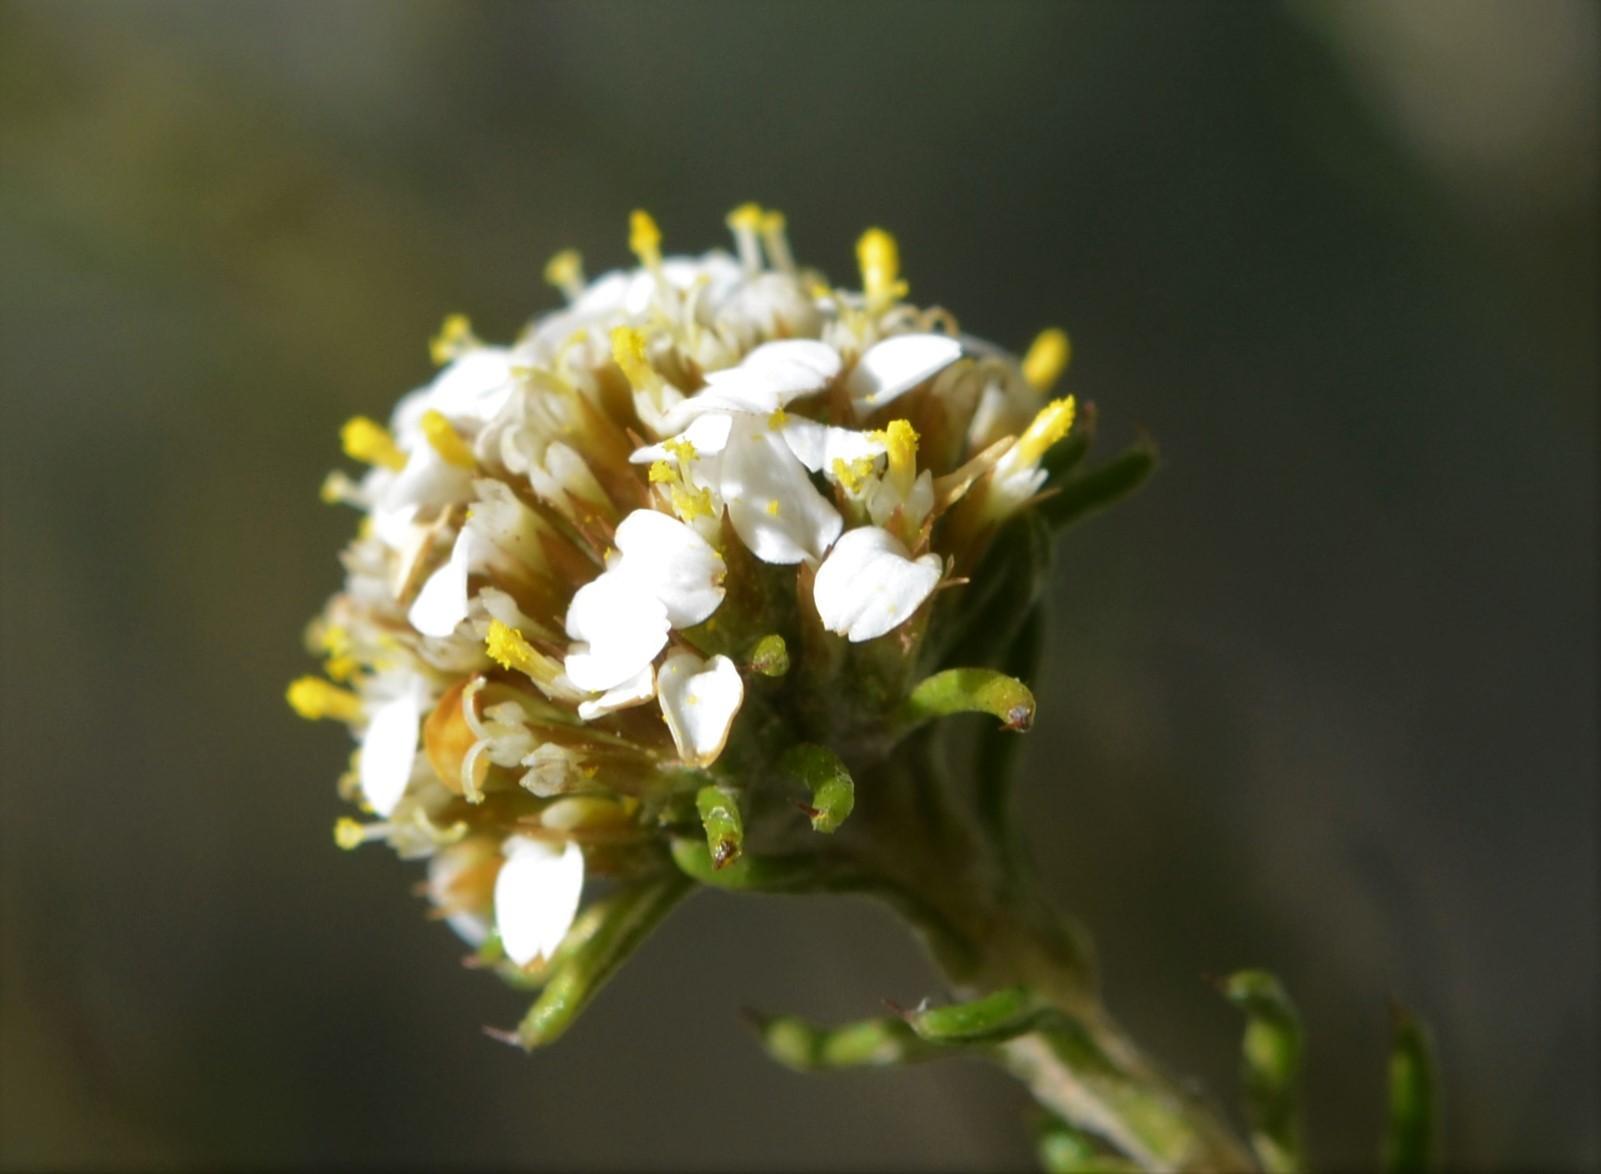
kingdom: Plantae
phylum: Tracheophyta
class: Magnoliopsida
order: Asterales
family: Asteraceae
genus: Disparago
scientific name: Disparago anomala
